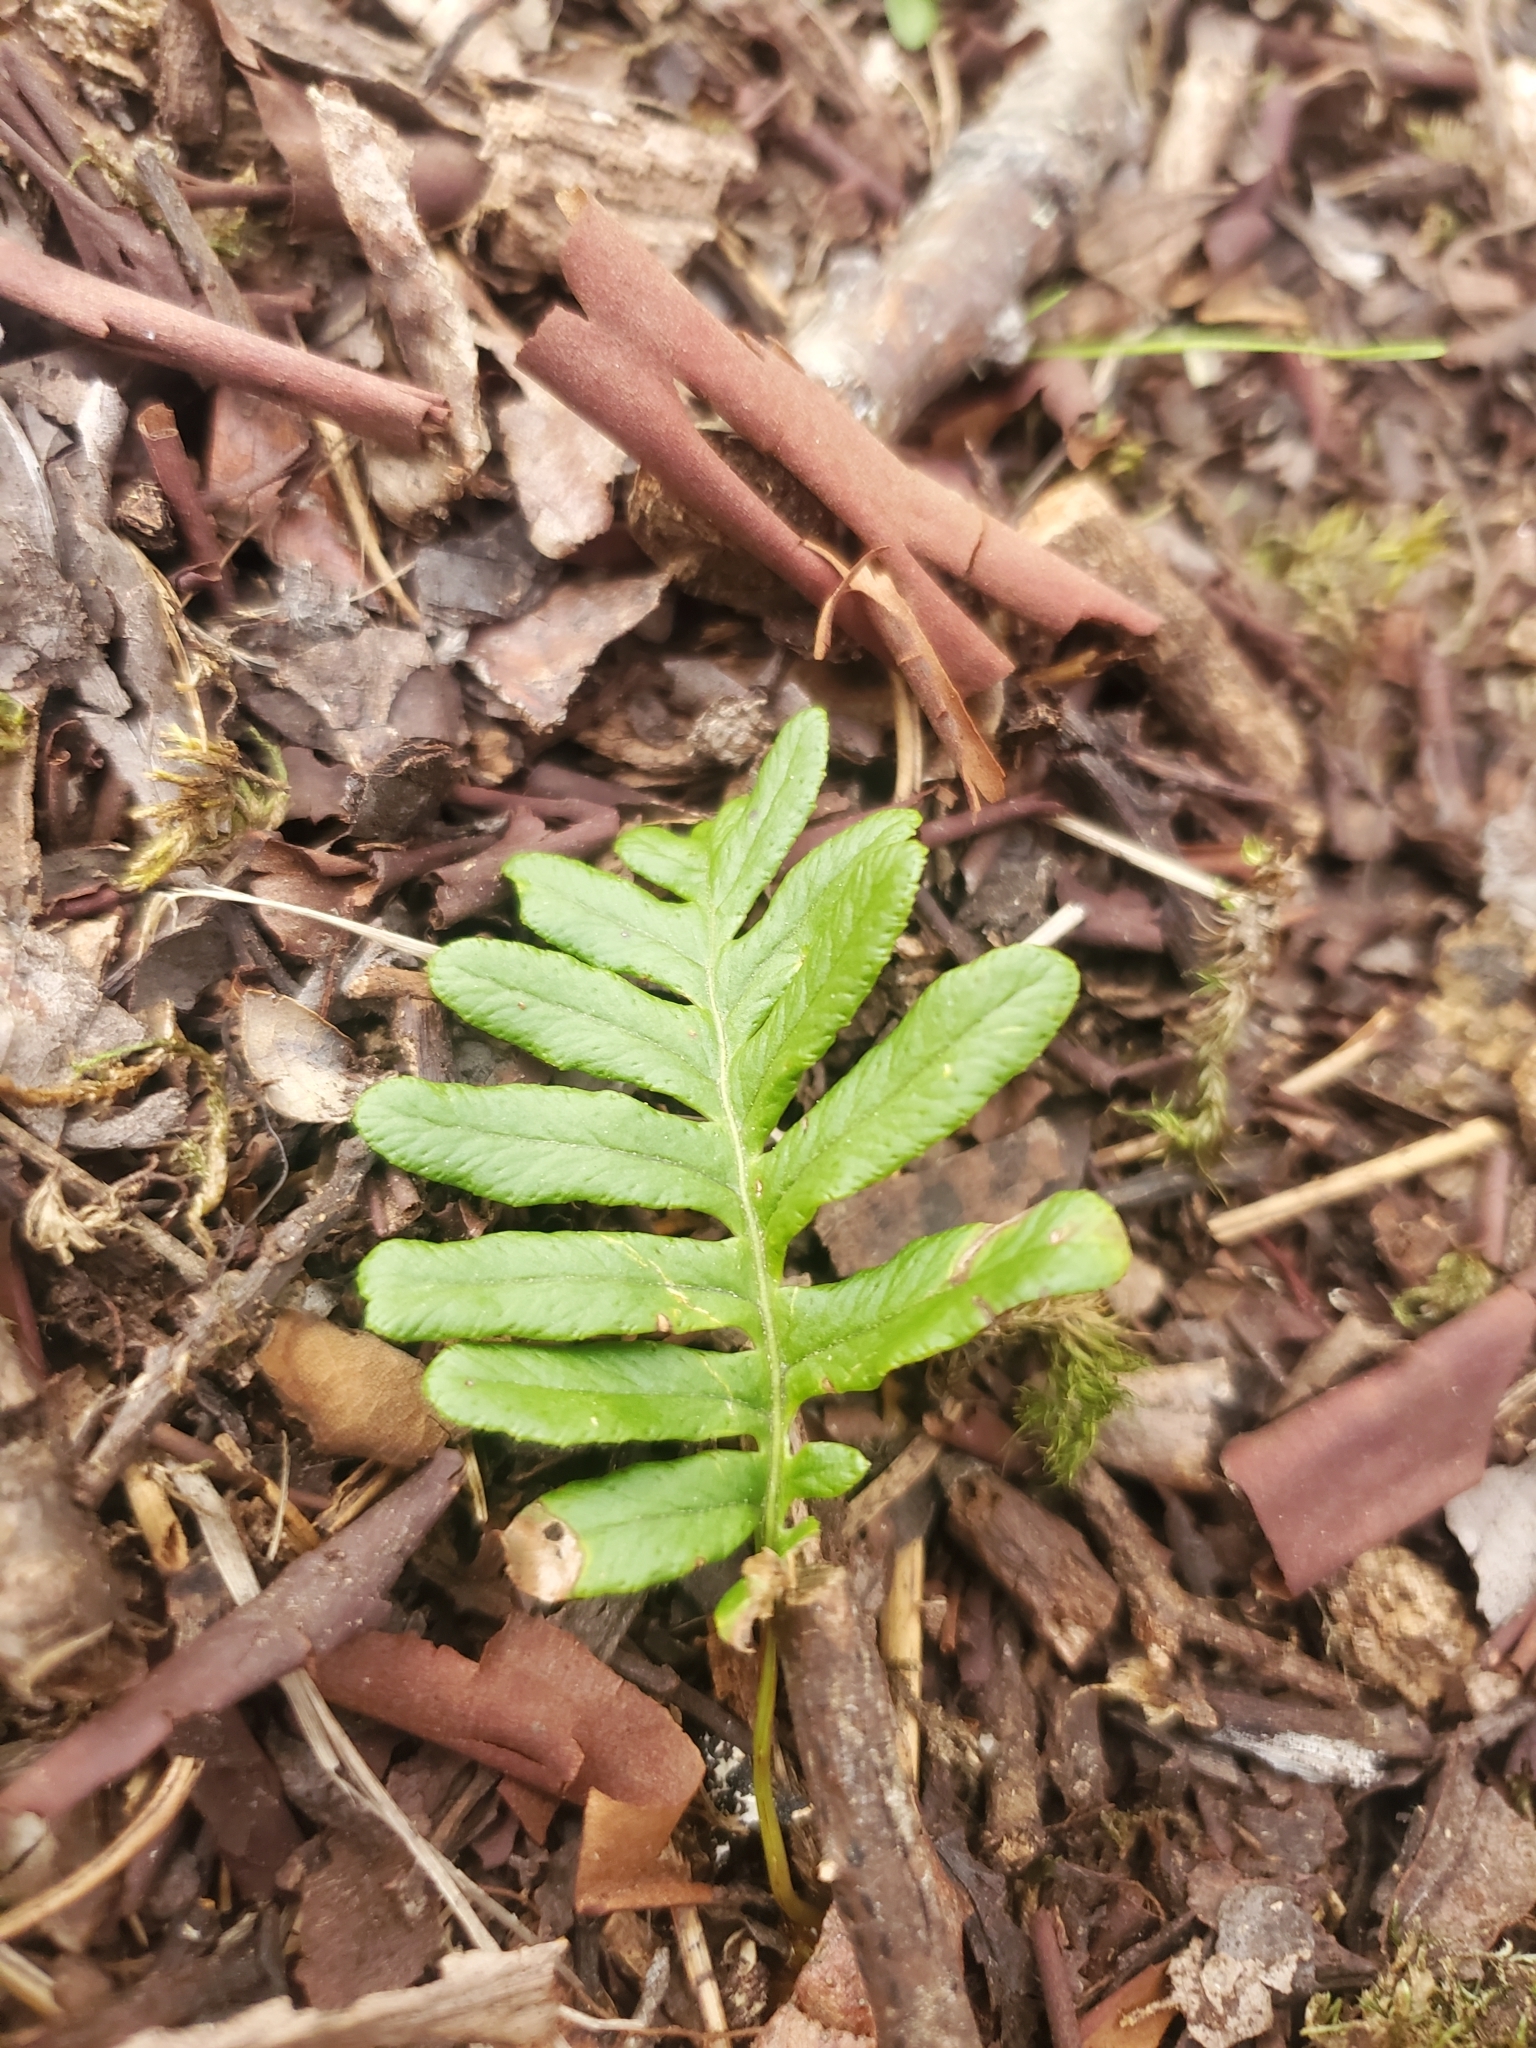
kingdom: Plantae
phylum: Tracheophyta
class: Polypodiopsida
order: Polypodiales
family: Polypodiaceae
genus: Polypodium
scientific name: Polypodium glycyrrhiza
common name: Licorice fern
